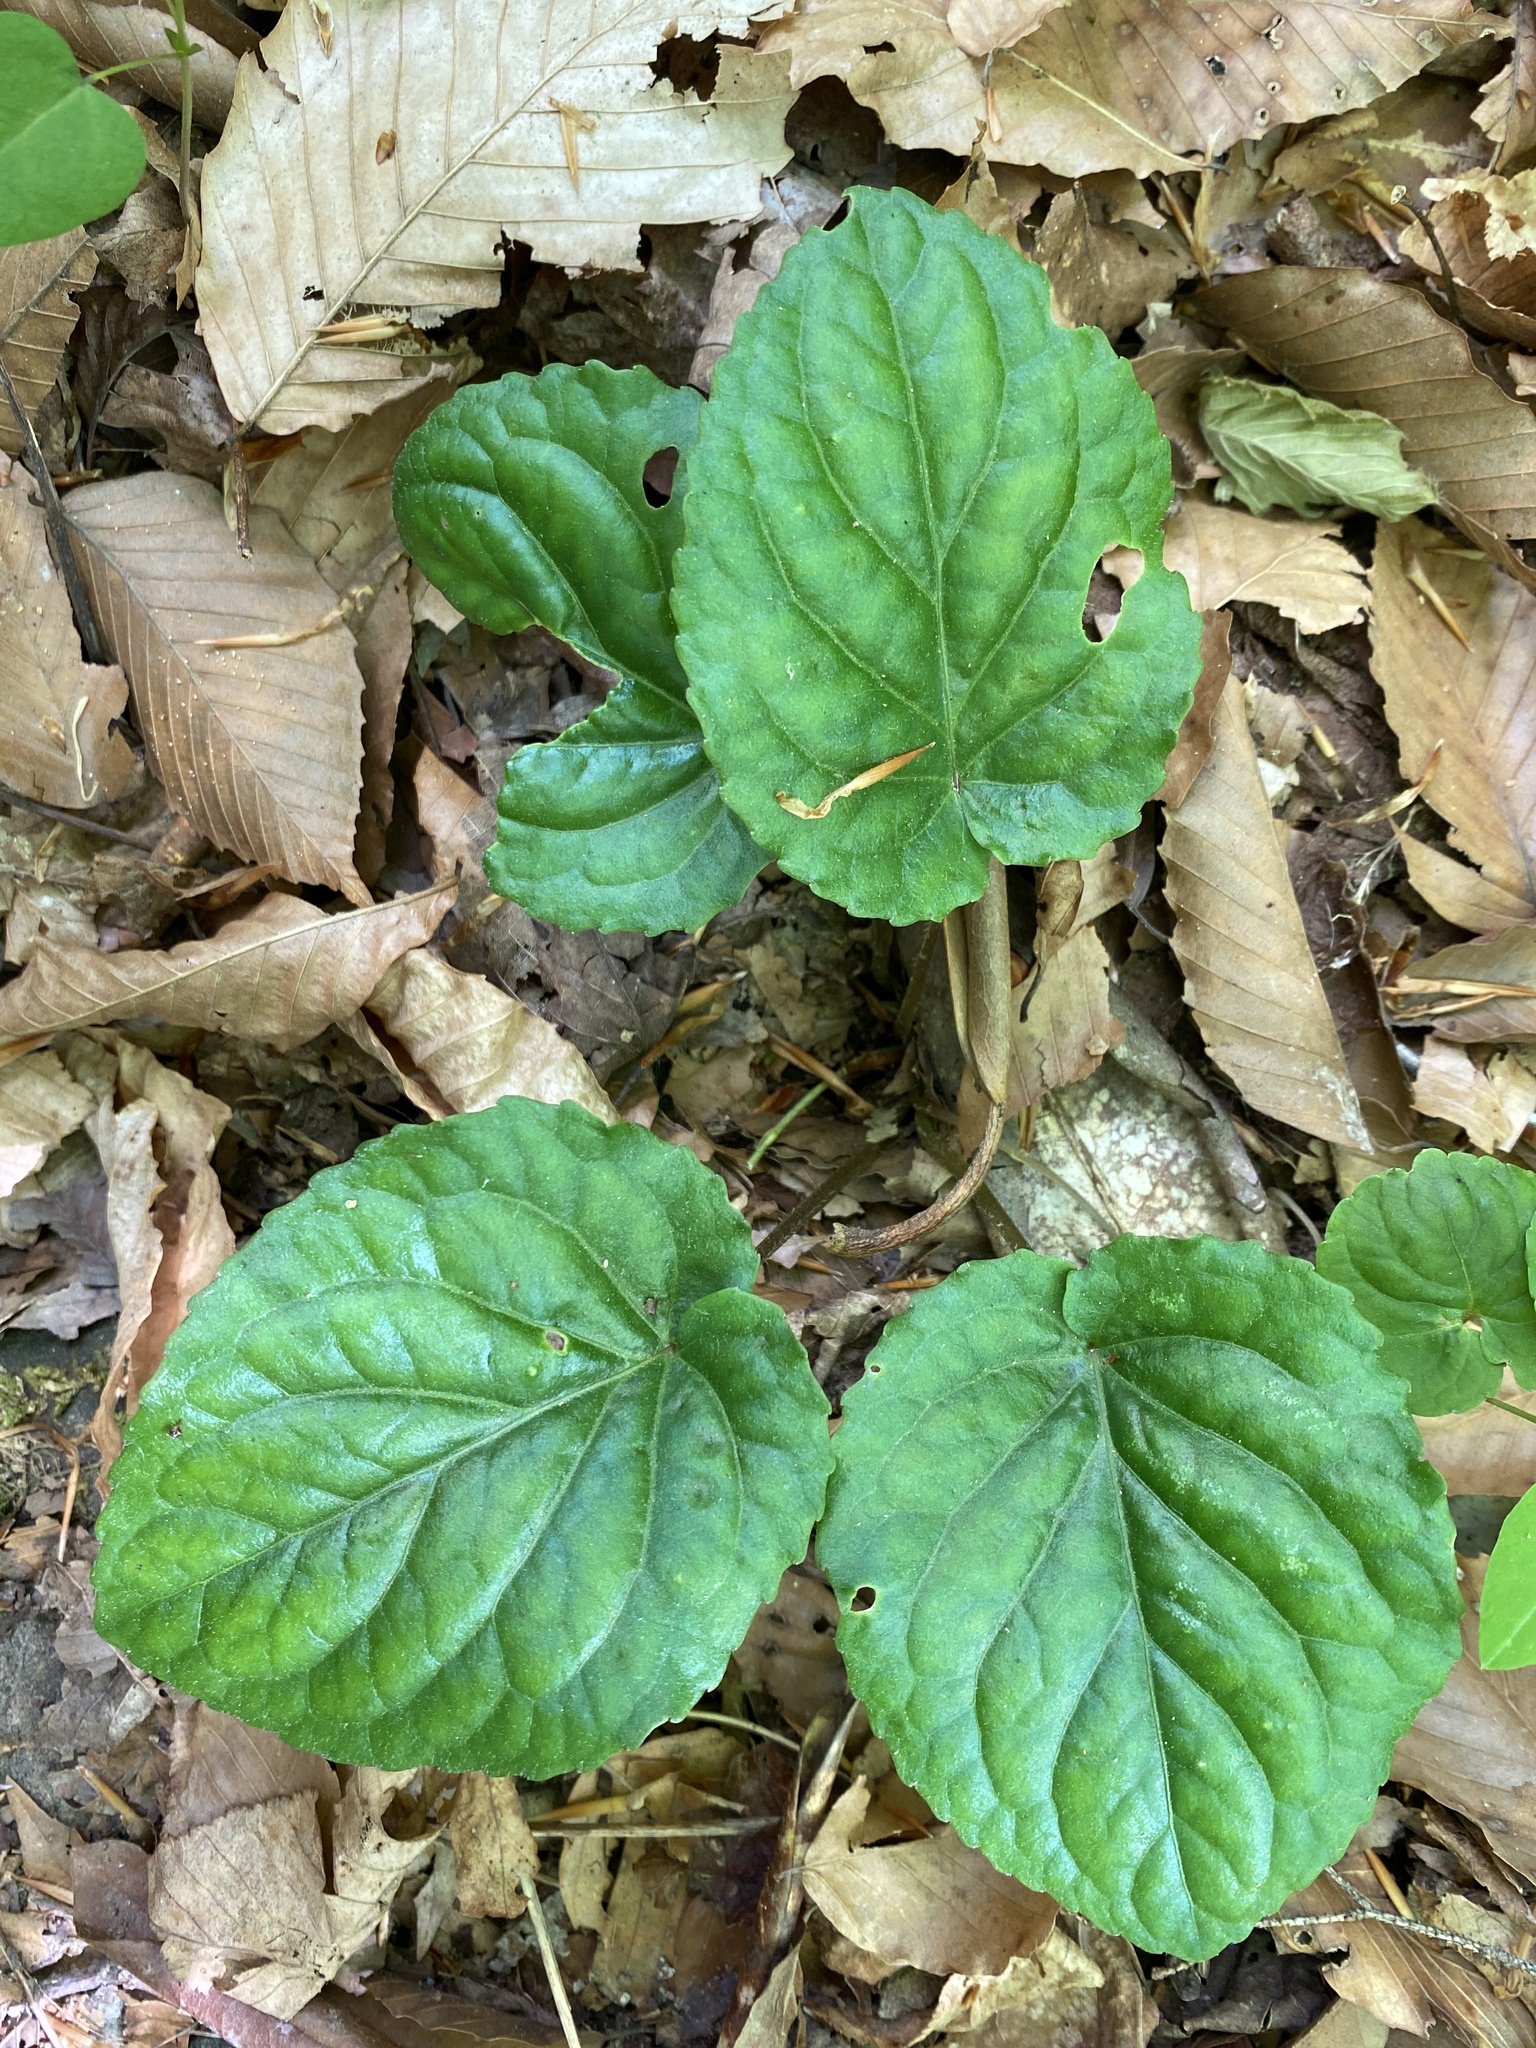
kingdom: Plantae
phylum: Tracheophyta
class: Magnoliopsida
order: Malpighiales
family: Violaceae
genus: Viola
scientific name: Viola rotundifolia
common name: Early yellow violet
